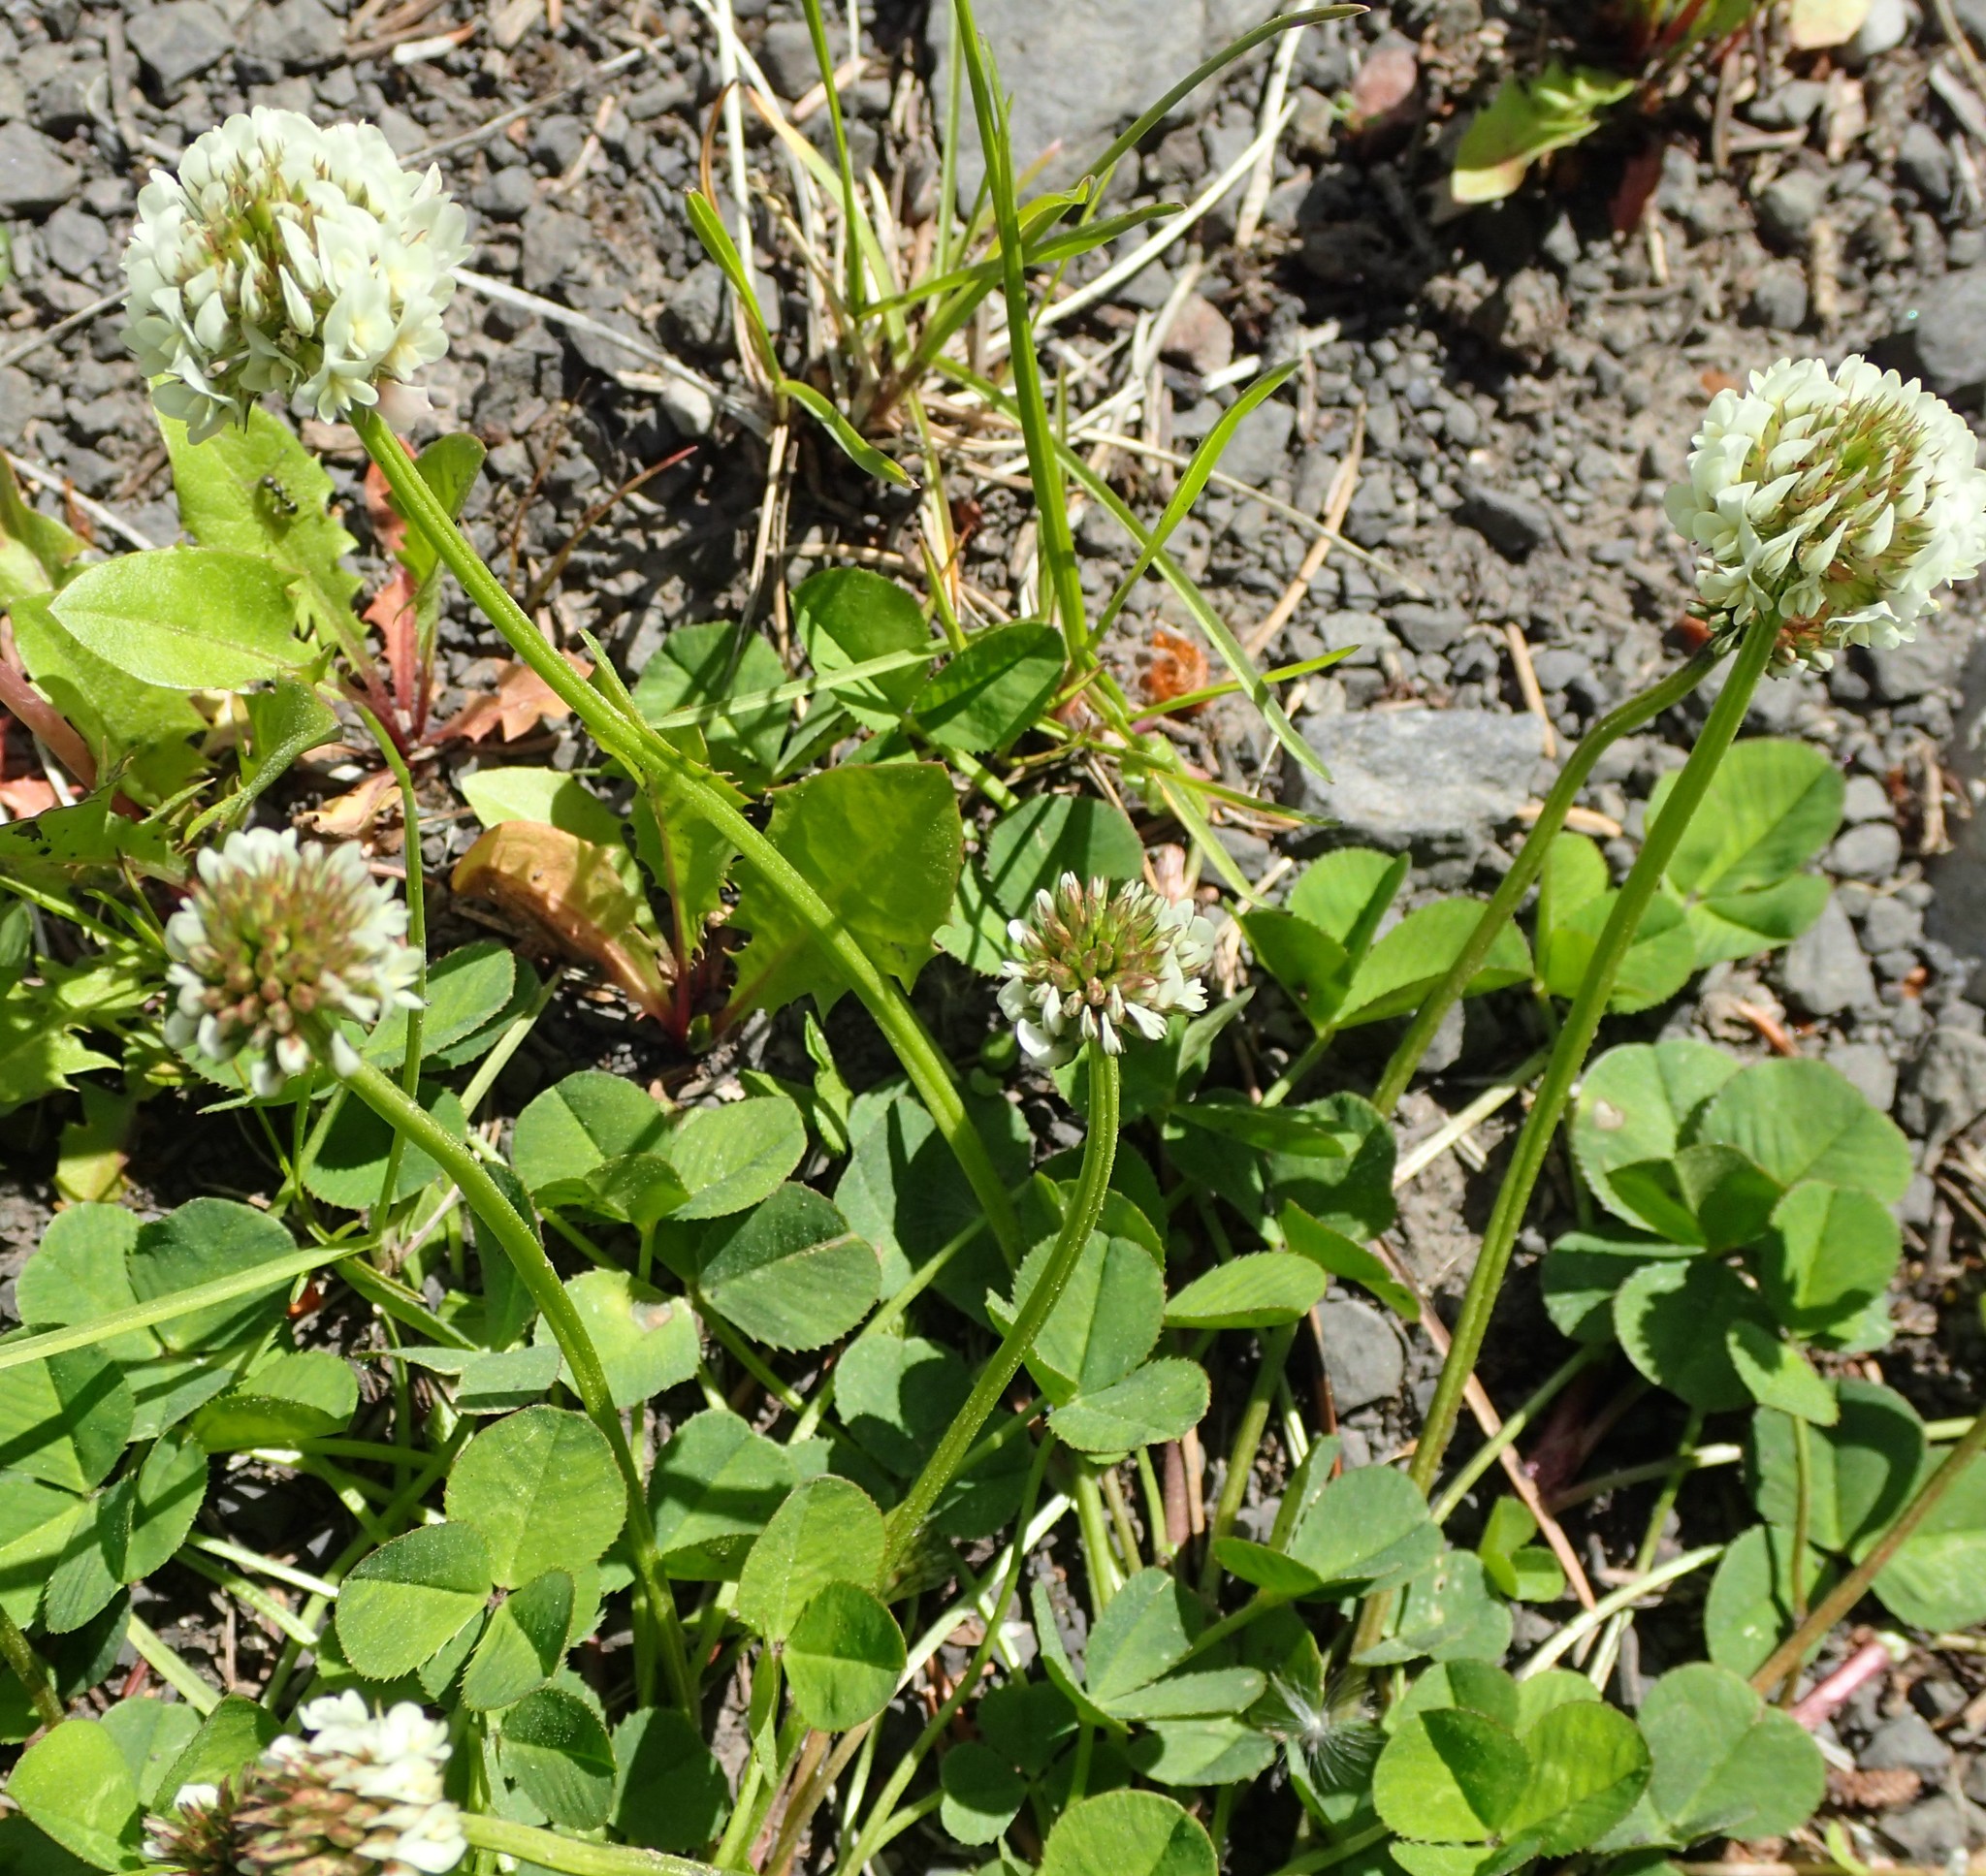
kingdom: Plantae
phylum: Tracheophyta
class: Magnoliopsida
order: Fabales
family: Fabaceae
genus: Trifolium
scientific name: Trifolium repens
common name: White clover
